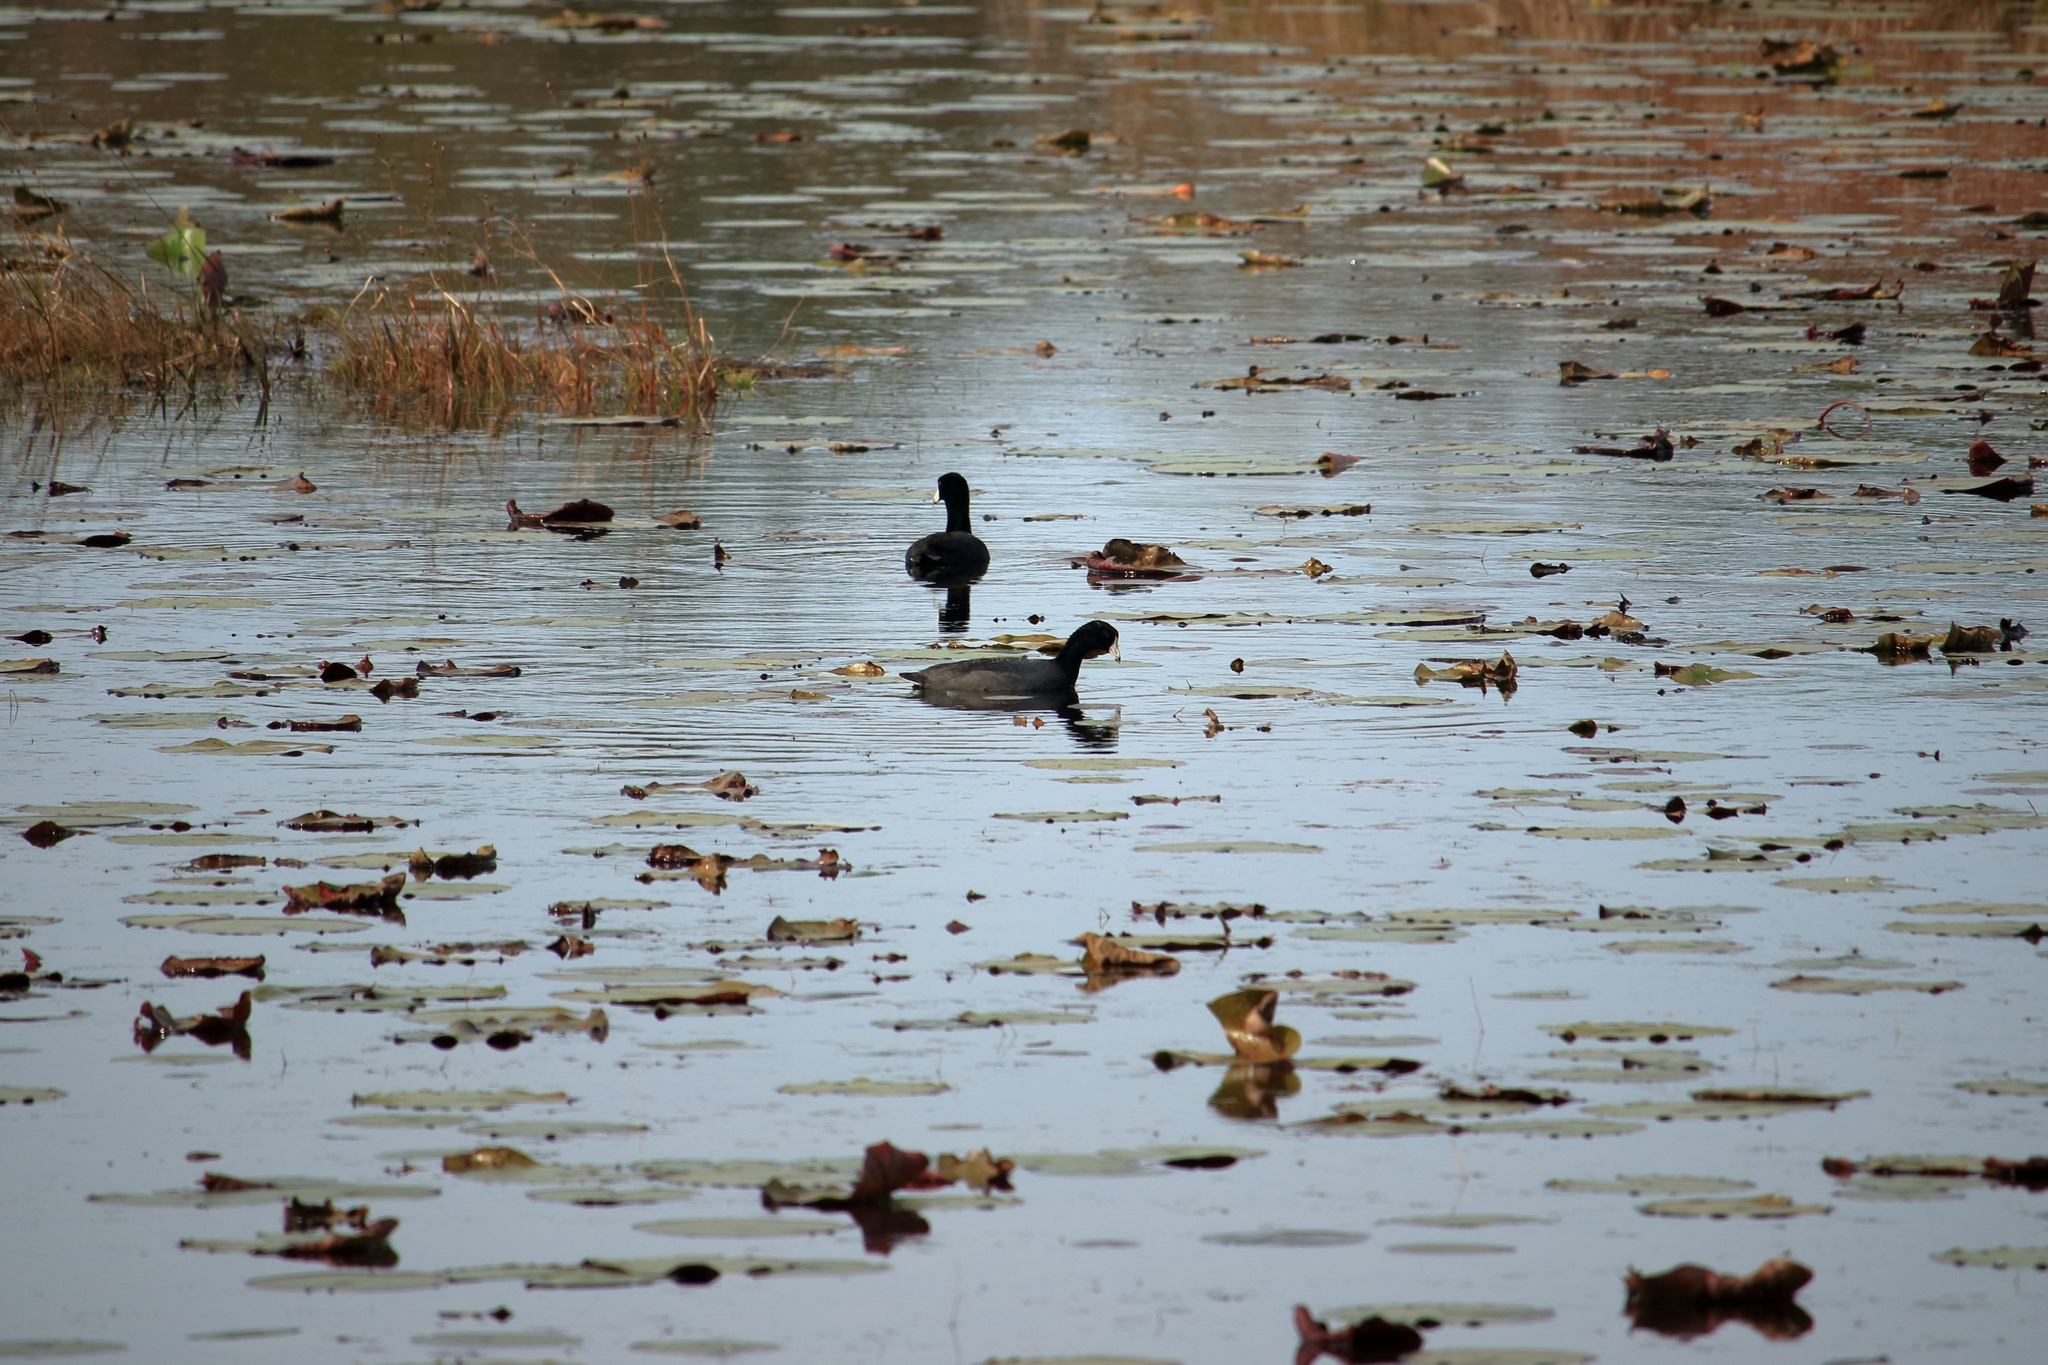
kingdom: Animalia
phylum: Chordata
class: Aves
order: Gruiformes
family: Rallidae
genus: Fulica
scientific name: Fulica americana
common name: American coot
